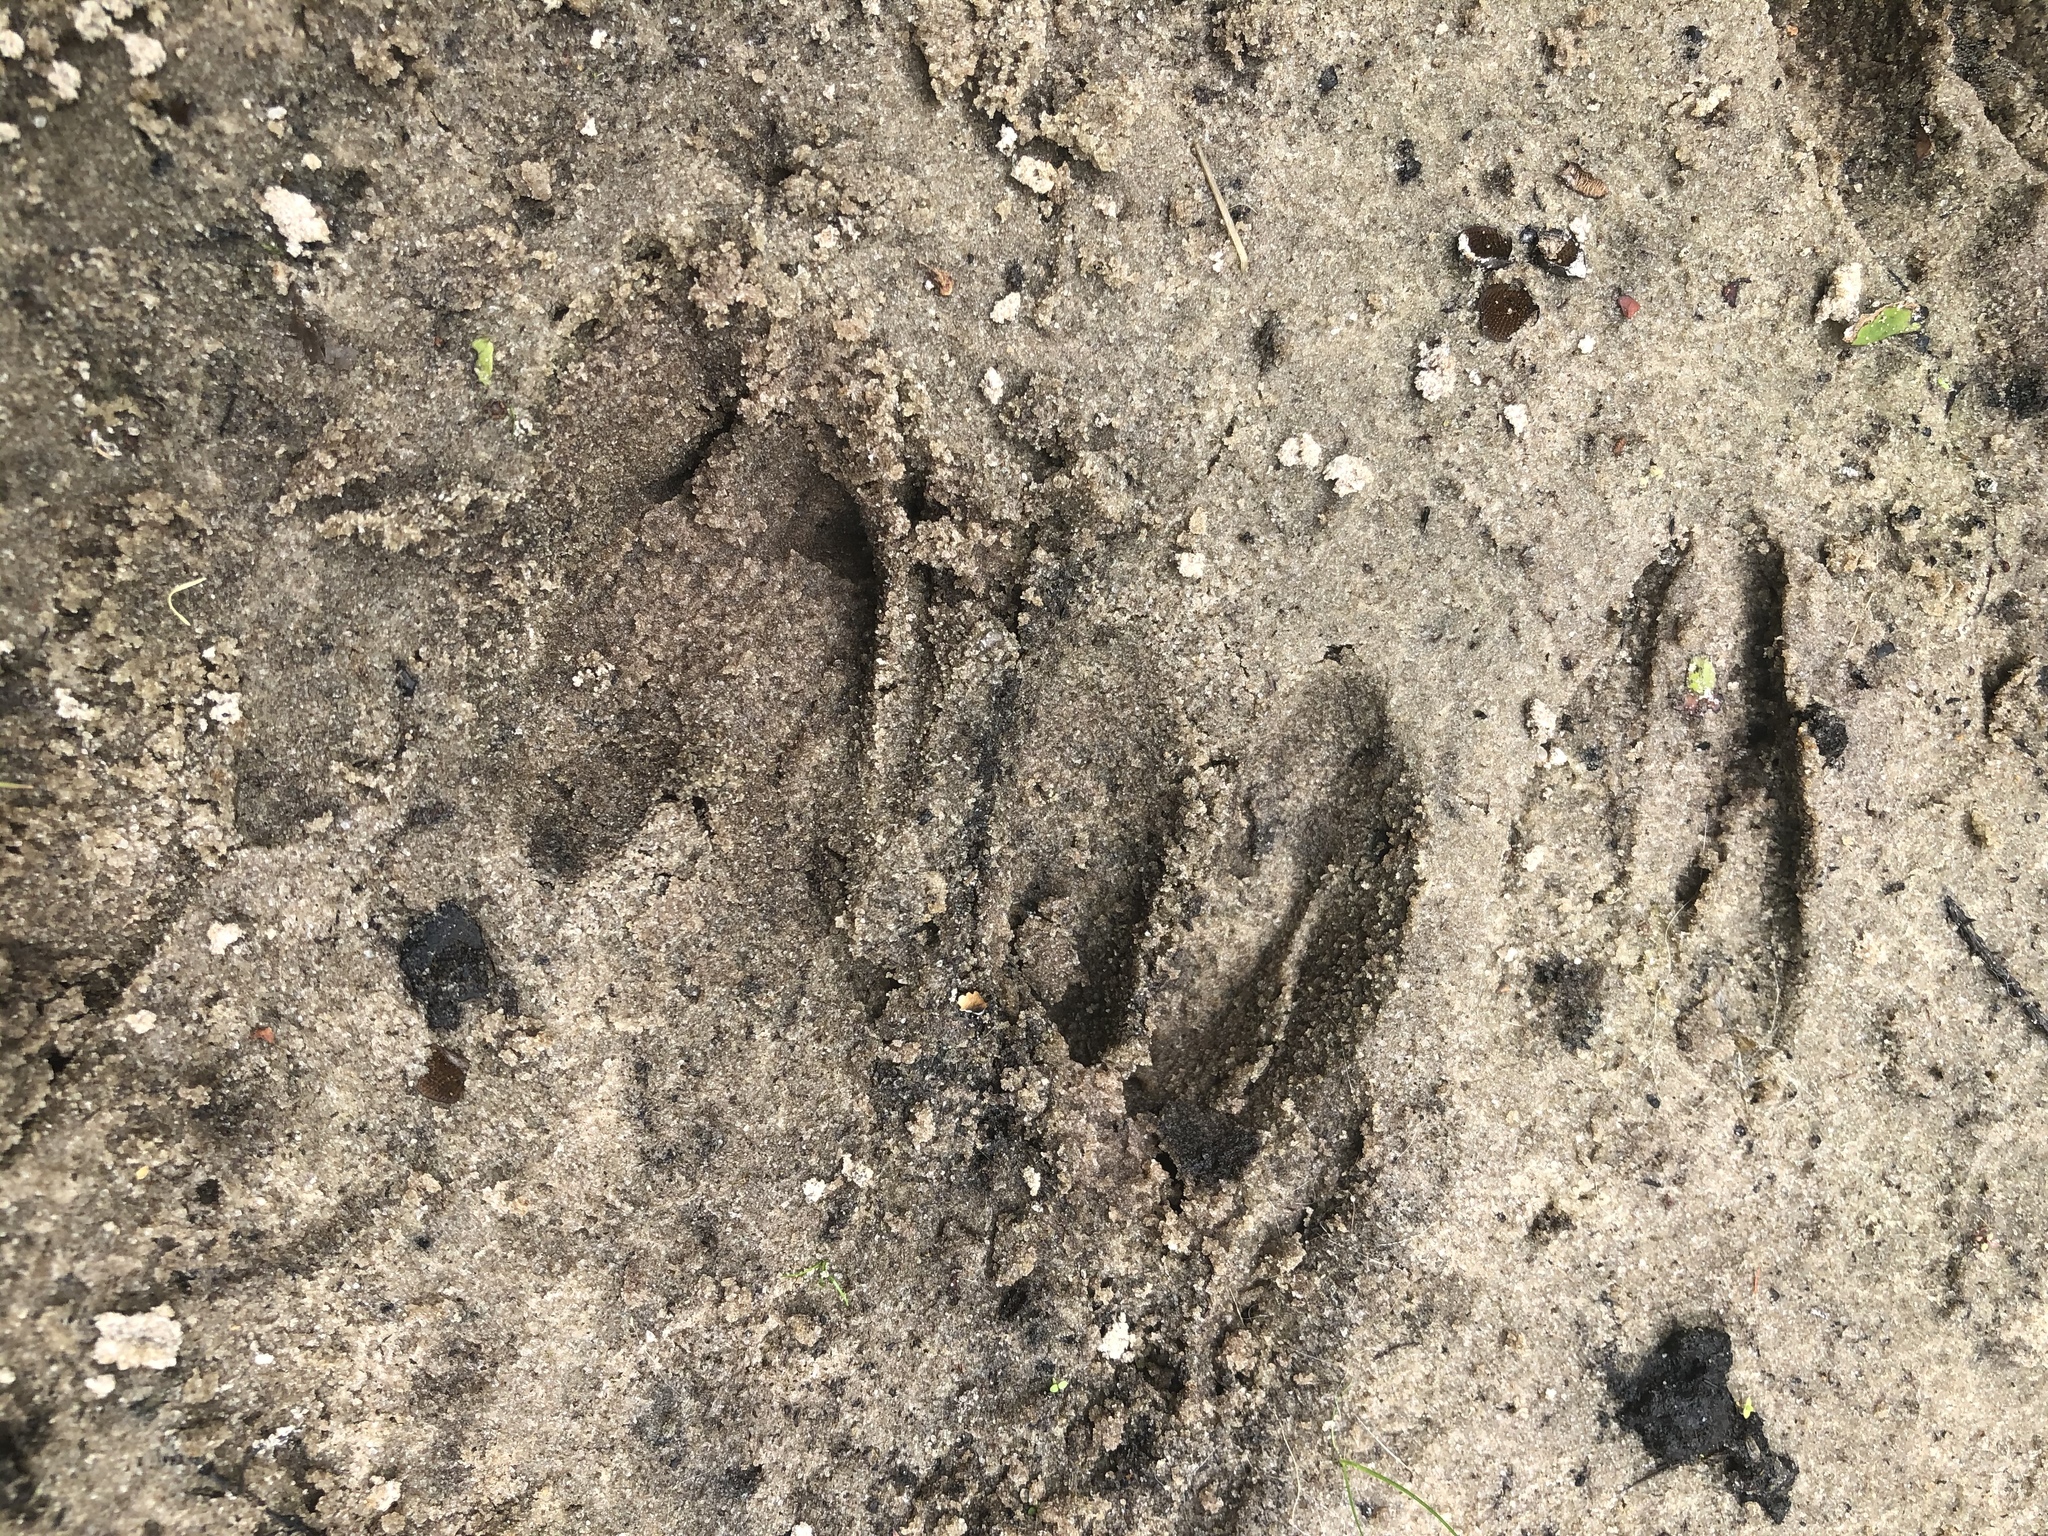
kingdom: Animalia
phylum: Chordata
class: Mammalia
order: Artiodactyla
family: Cervidae
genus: Odocoileus
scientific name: Odocoileus virginianus
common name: White-tailed deer
